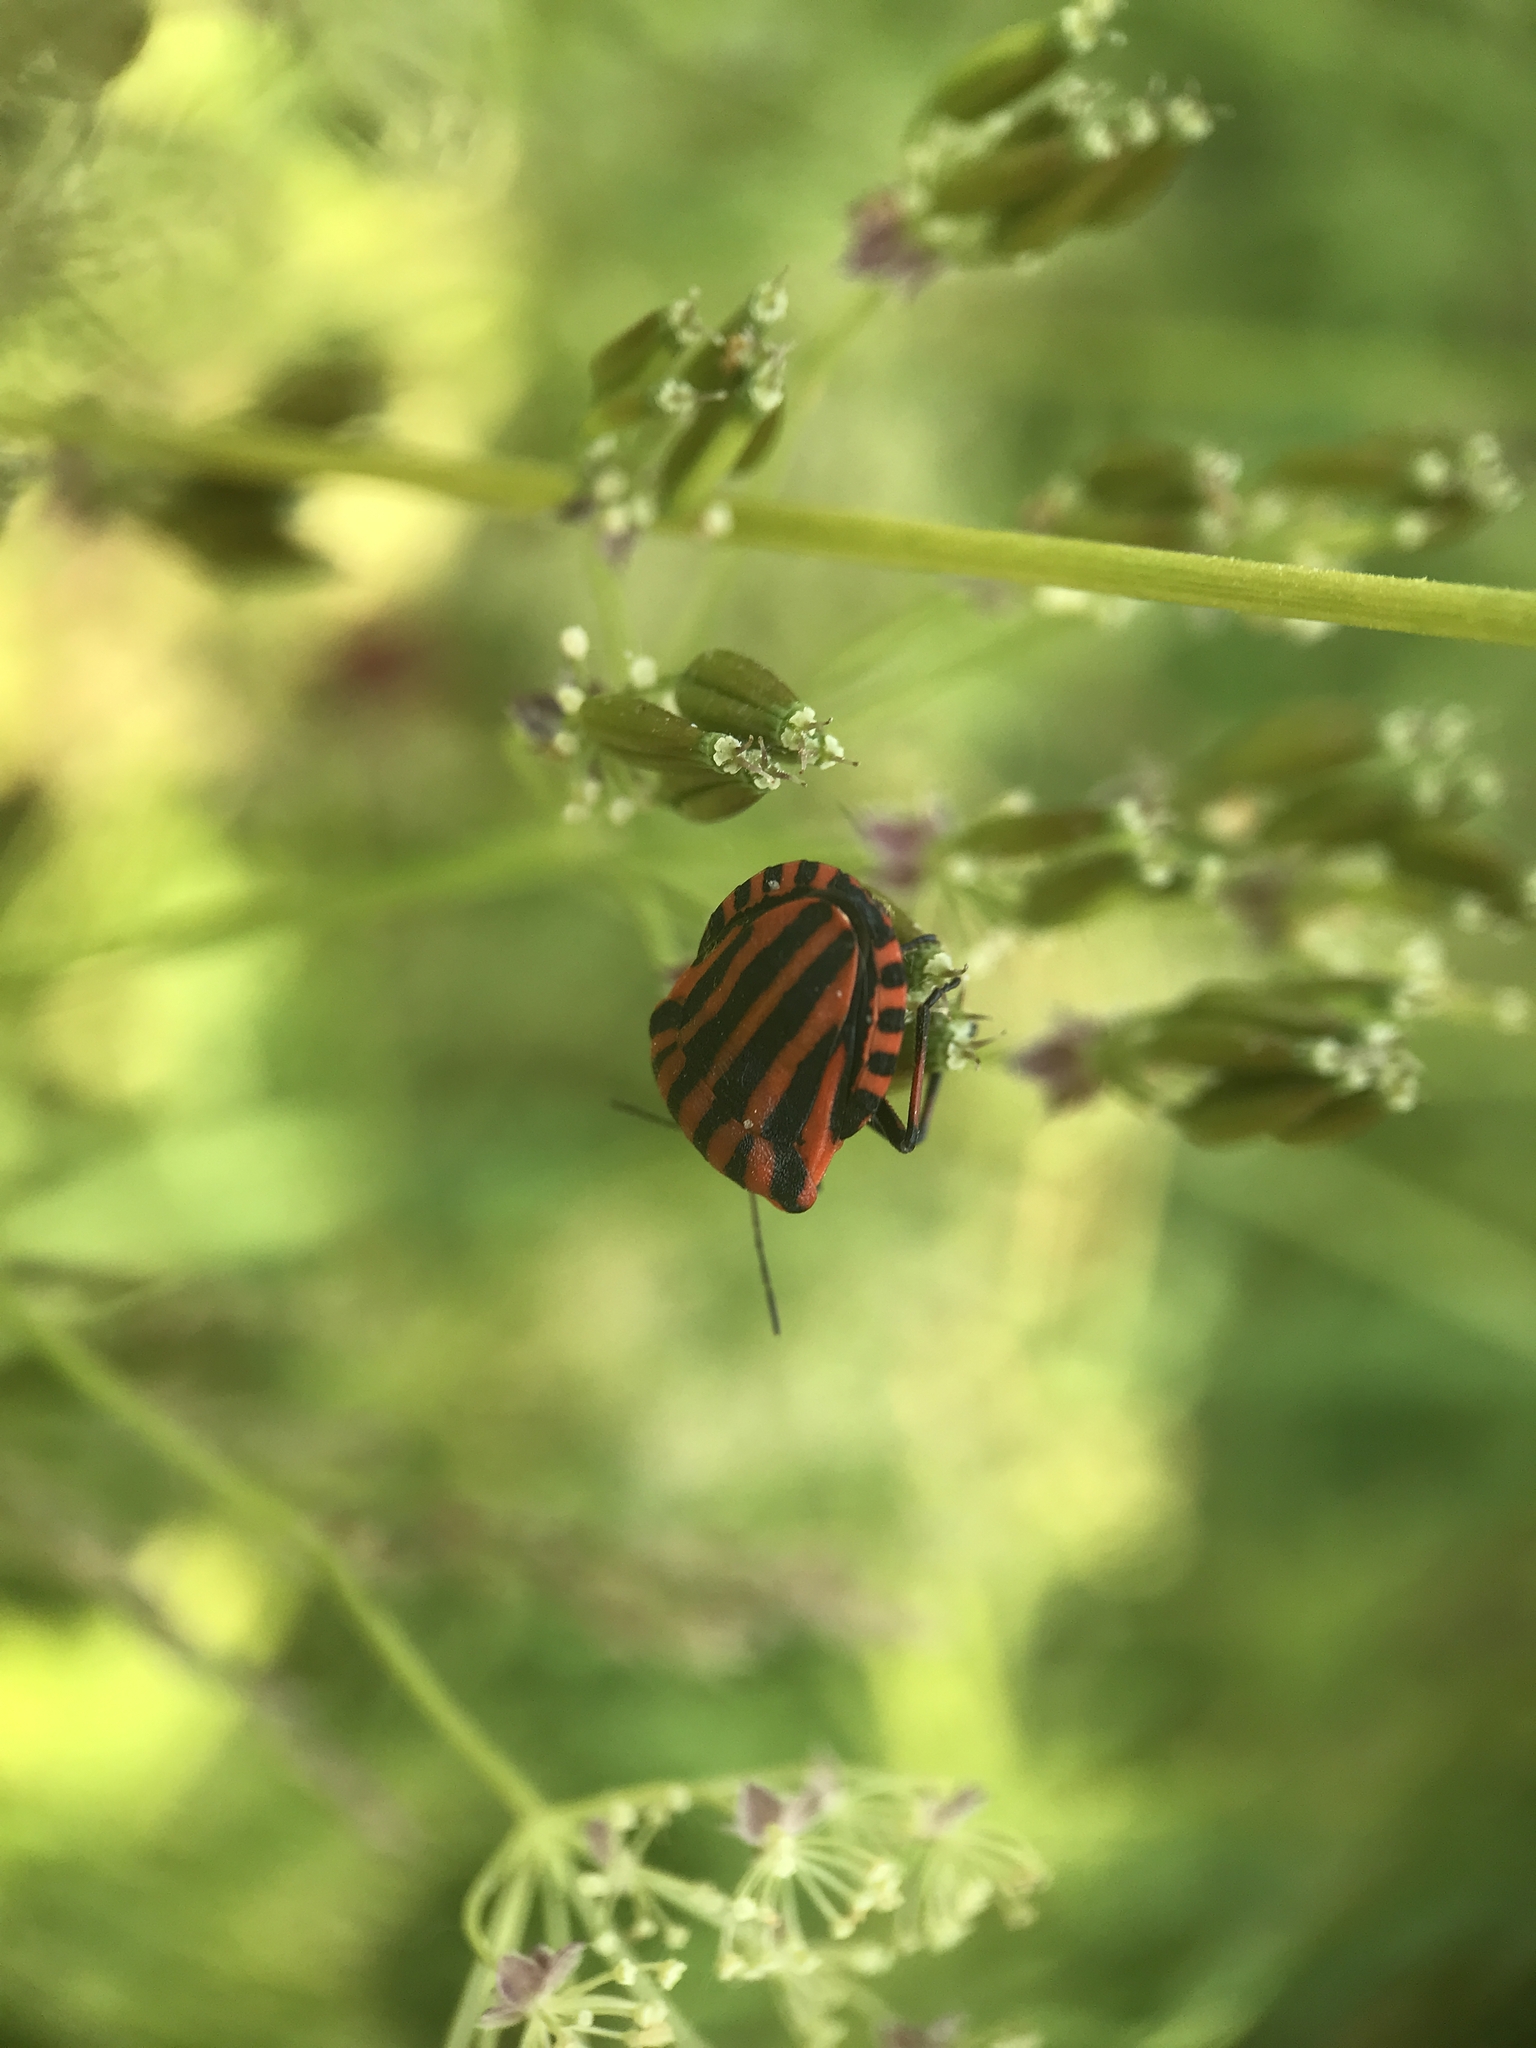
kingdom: Animalia
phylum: Arthropoda
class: Insecta
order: Hemiptera
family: Pentatomidae
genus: Graphosoma
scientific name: Graphosoma italicum
